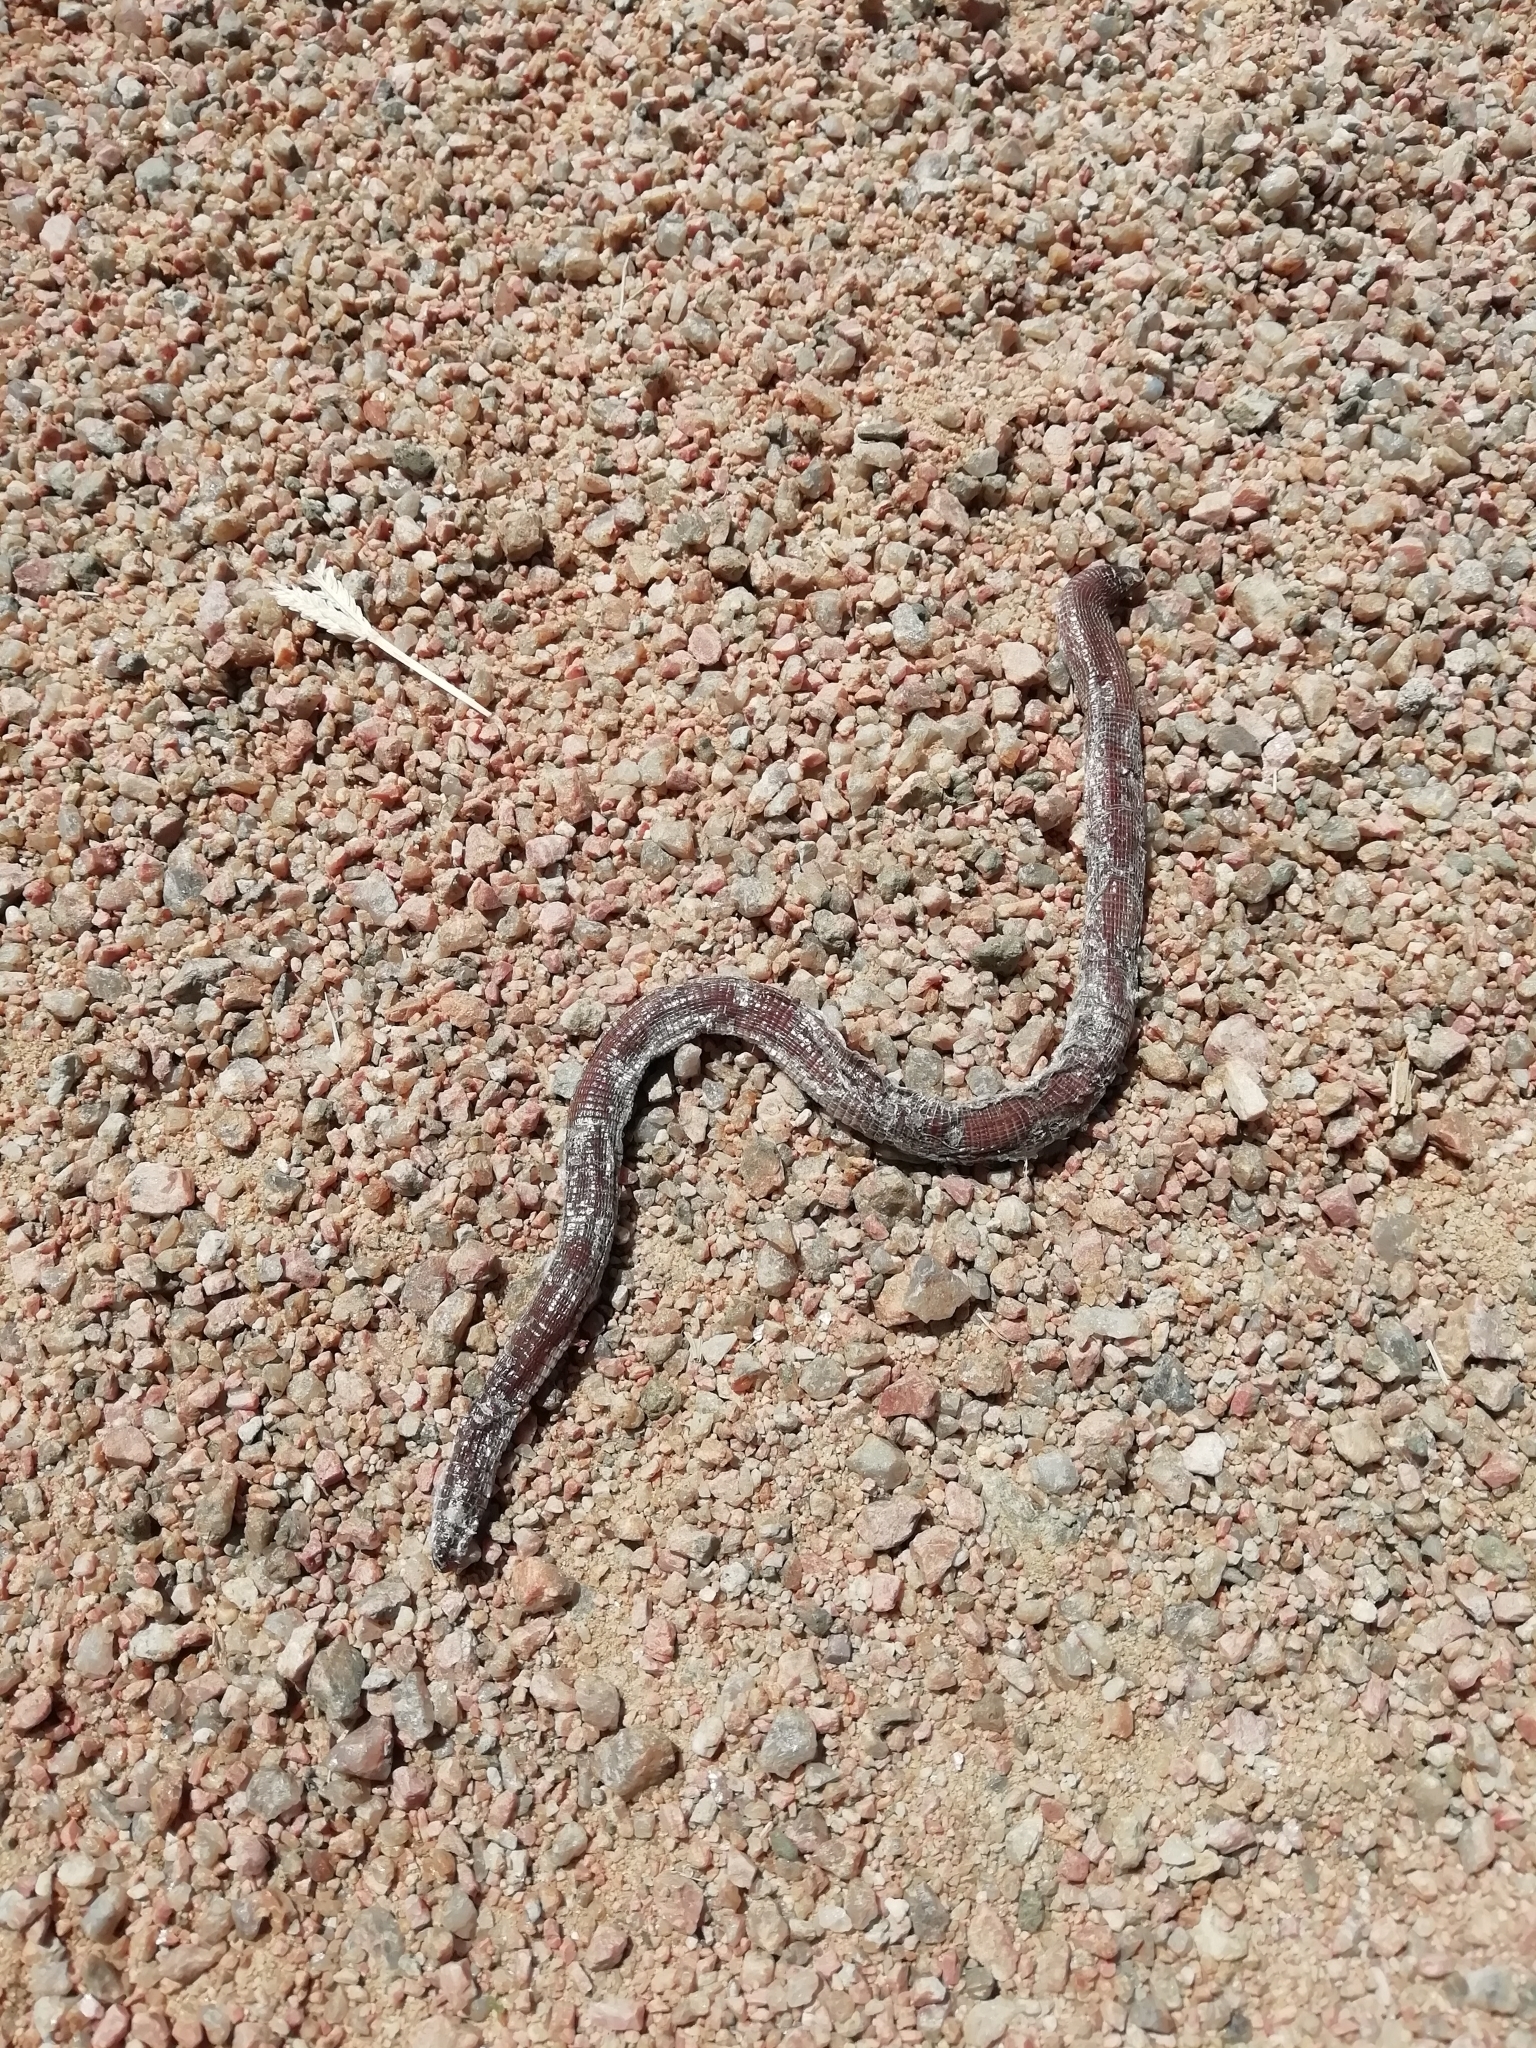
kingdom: Animalia
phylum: Chordata
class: Squamata
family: Amphisbaenidae
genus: Amphisbaena
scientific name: Amphisbaena darwinii
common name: Darwin's ringed worm lizard
